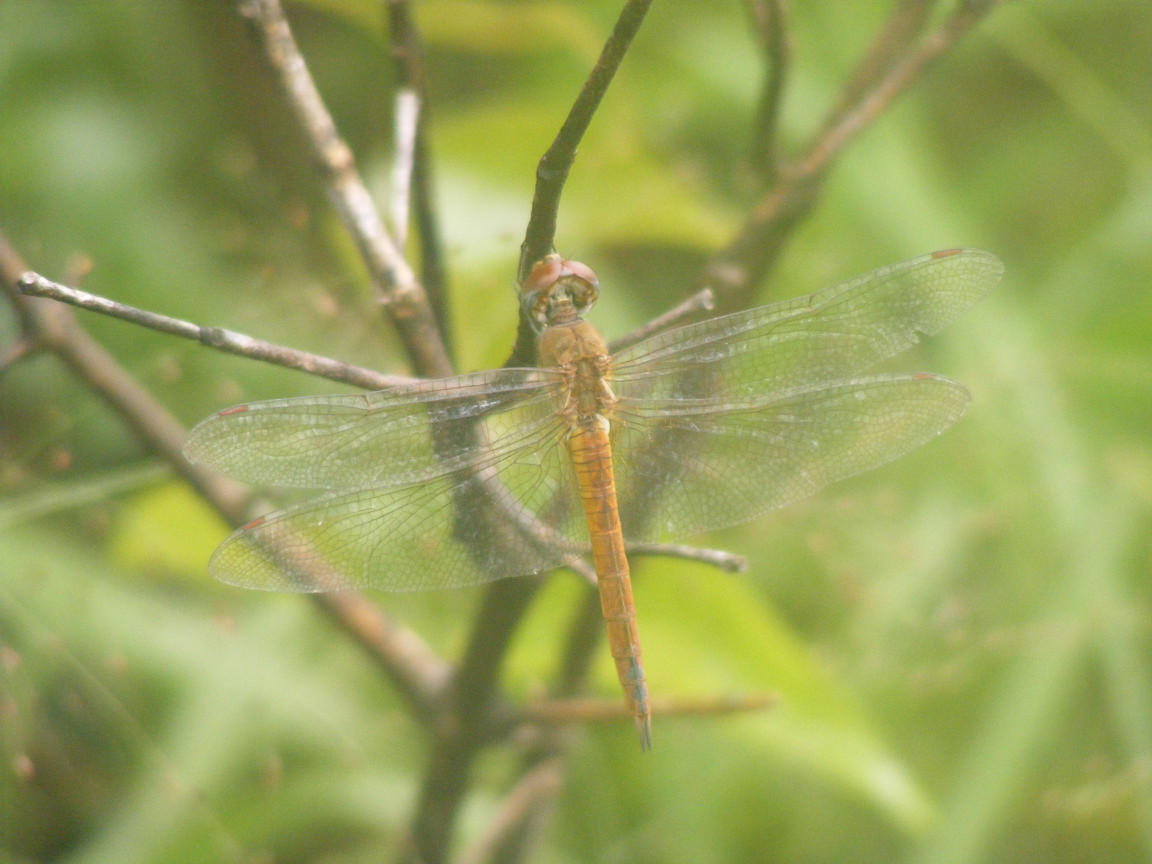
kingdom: Animalia
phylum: Arthropoda
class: Insecta
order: Odonata
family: Libellulidae
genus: Pantala
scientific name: Pantala flavescens
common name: Wandering glider
